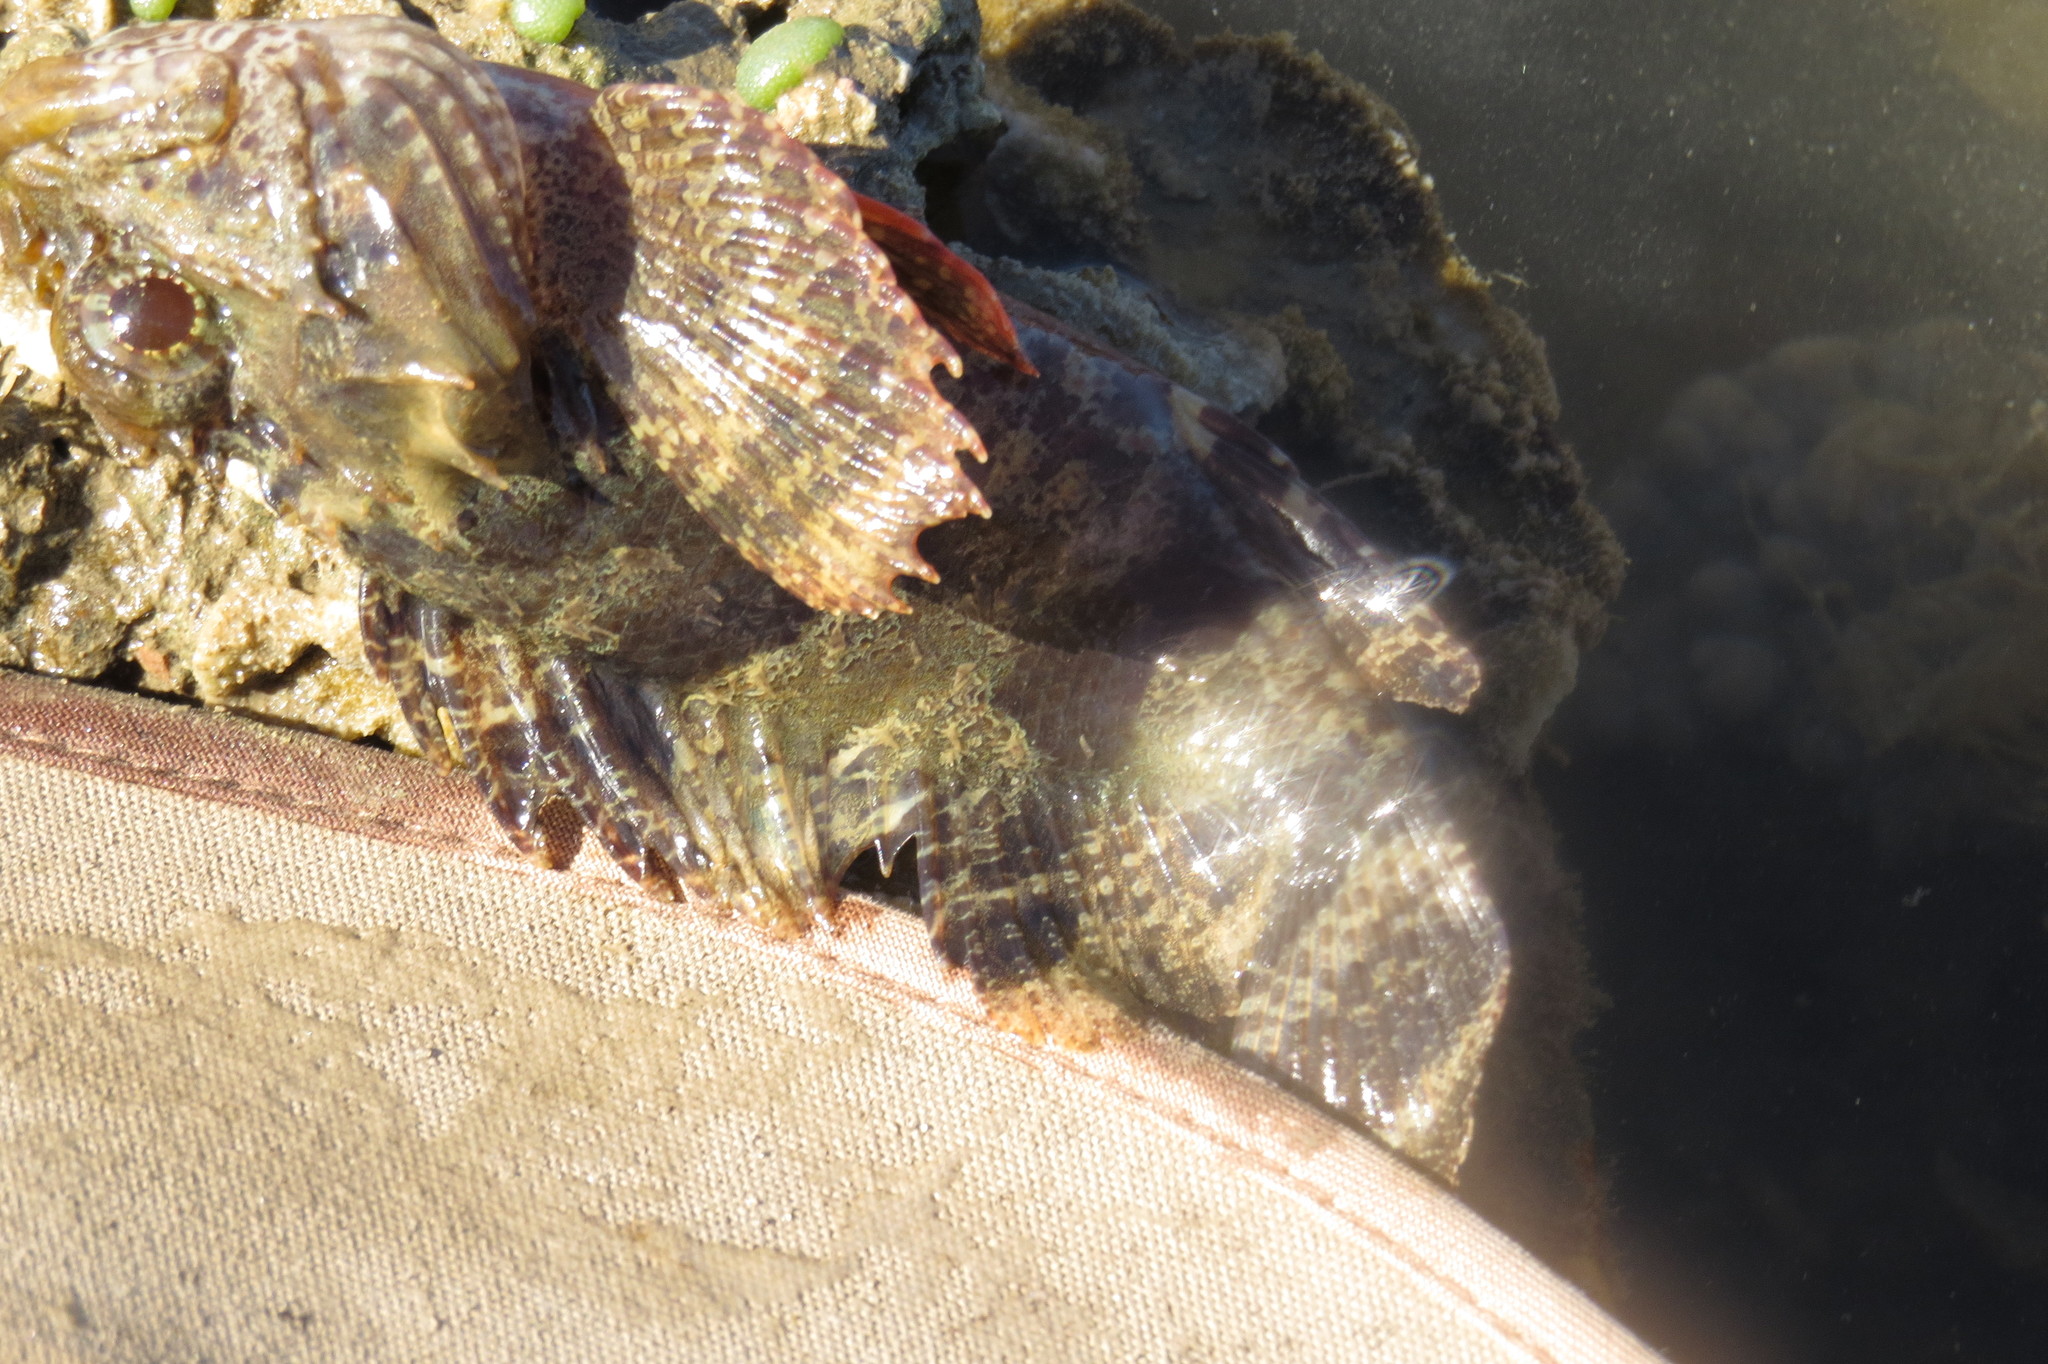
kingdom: Animalia
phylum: Chordata
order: Scorpaeniformes
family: Scorpaenidae
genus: Parascorpaena
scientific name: Parascorpaena aurita
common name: Byno scorpionfish
